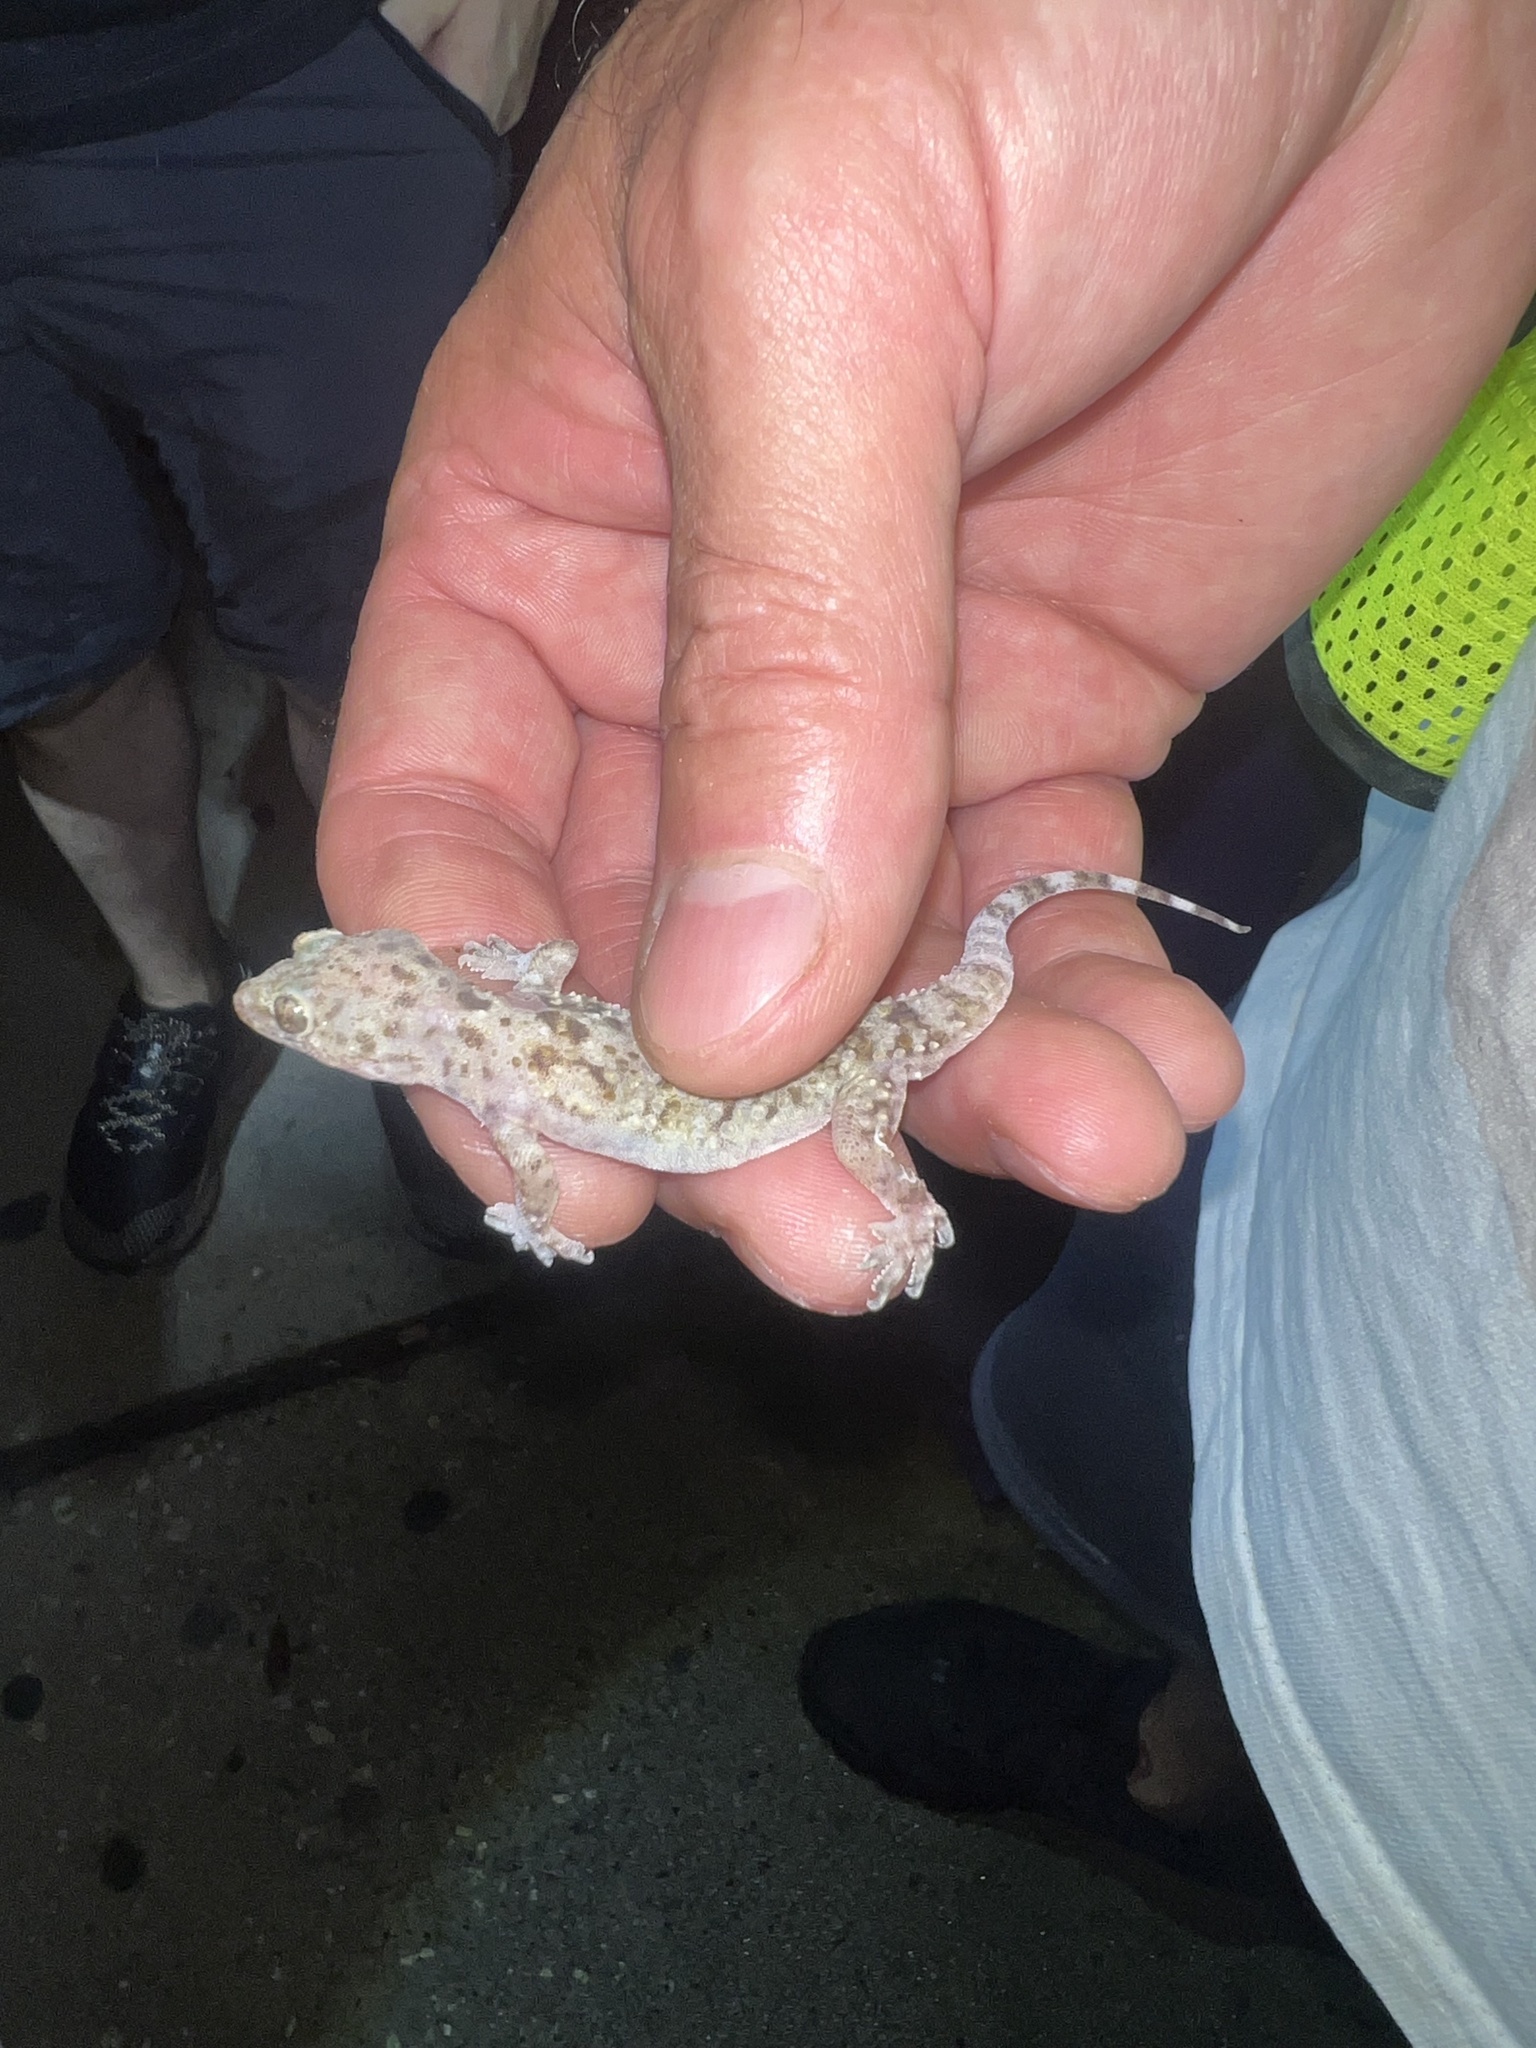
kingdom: Animalia
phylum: Chordata
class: Squamata
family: Gekkonidae
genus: Hemidactylus
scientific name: Hemidactylus turcicus
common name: Turkish gecko
